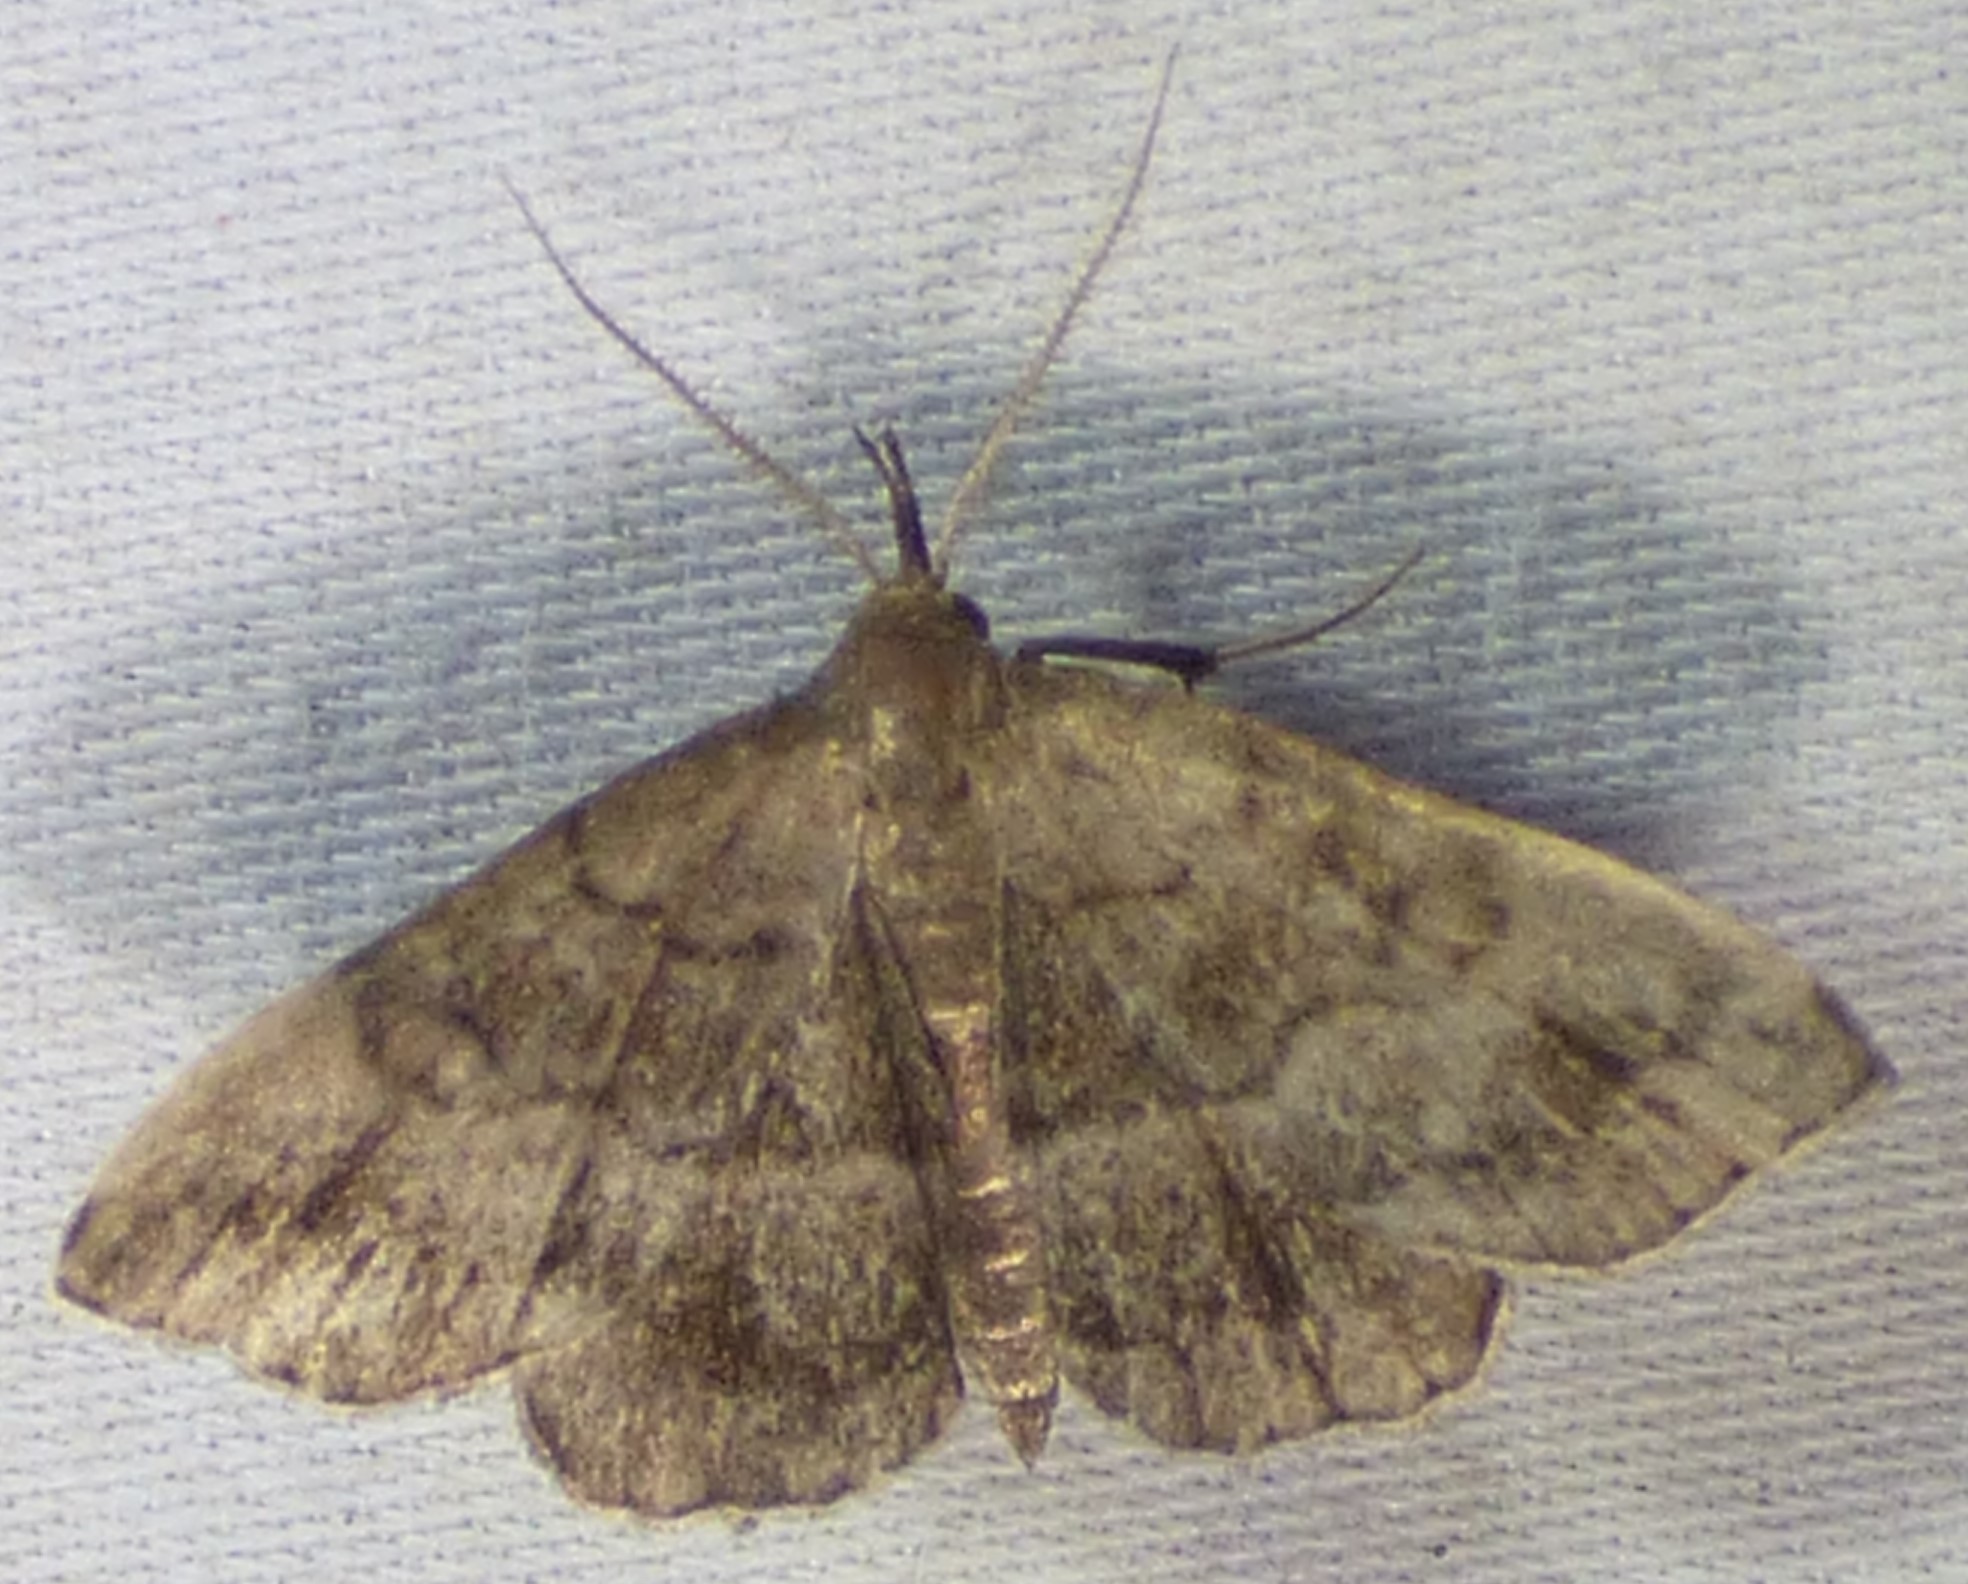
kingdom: Animalia
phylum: Arthropoda
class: Insecta
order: Lepidoptera
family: Erebidae
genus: Phalaenostola
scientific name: Phalaenostola larentioides
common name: Black-banded owlet
